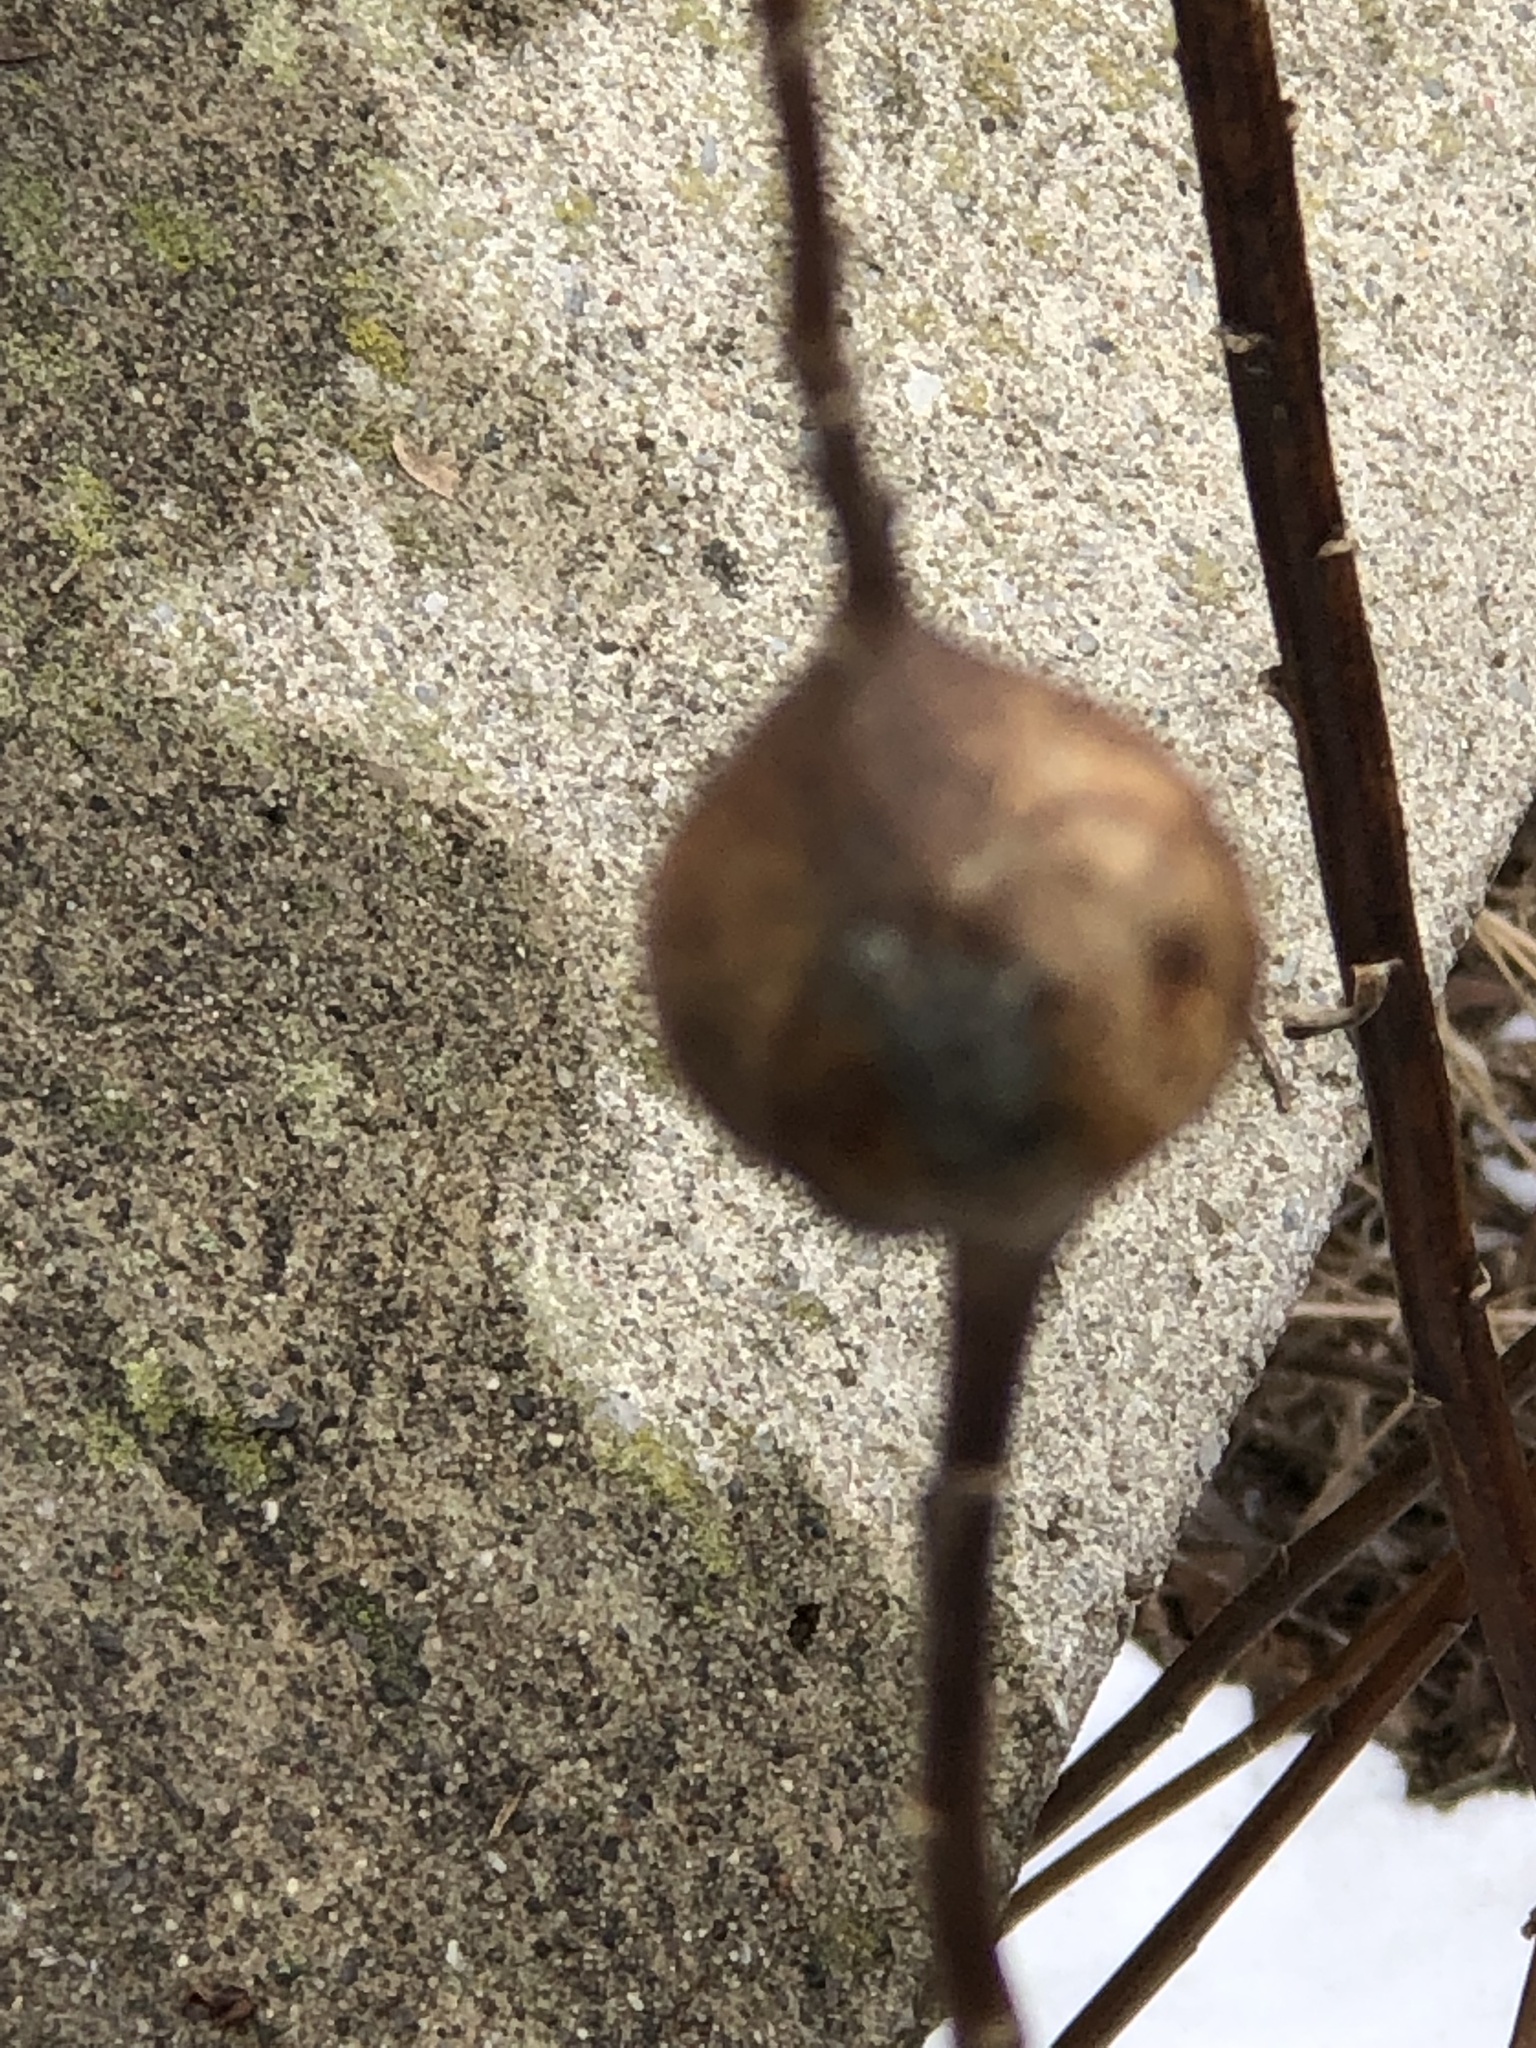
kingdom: Animalia
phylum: Arthropoda
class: Insecta
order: Diptera
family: Tephritidae
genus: Eurosta
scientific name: Eurosta solidaginis
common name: Goldenrod gall fly
